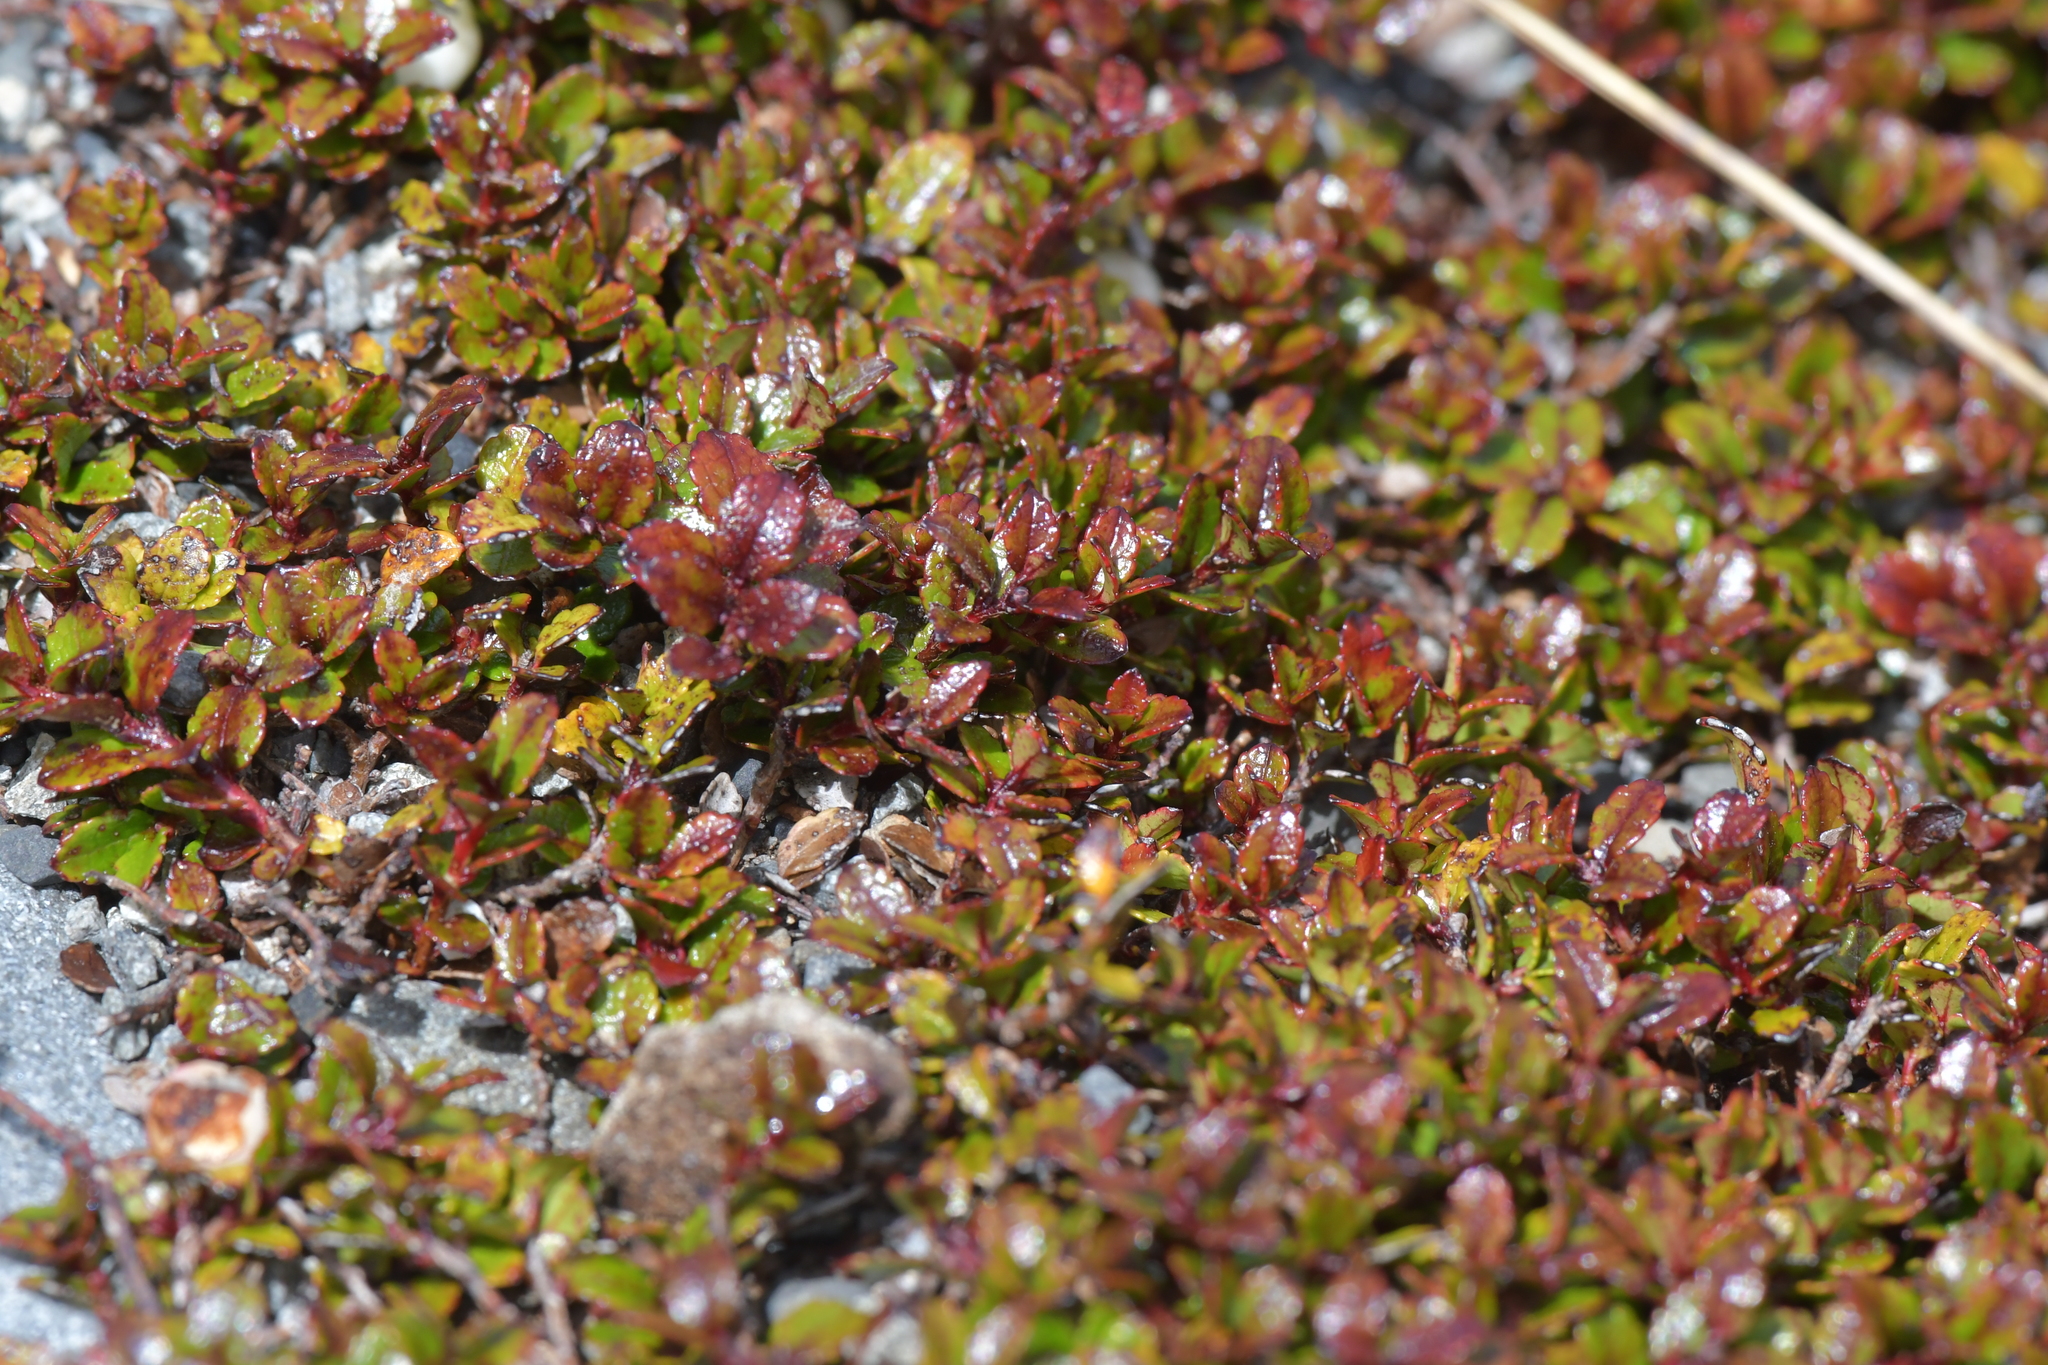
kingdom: Plantae
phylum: Tracheophyta
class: Magnoliopsida
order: Ericales
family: Ericaceae
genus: Gaultheria
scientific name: Gaultheria depressa
